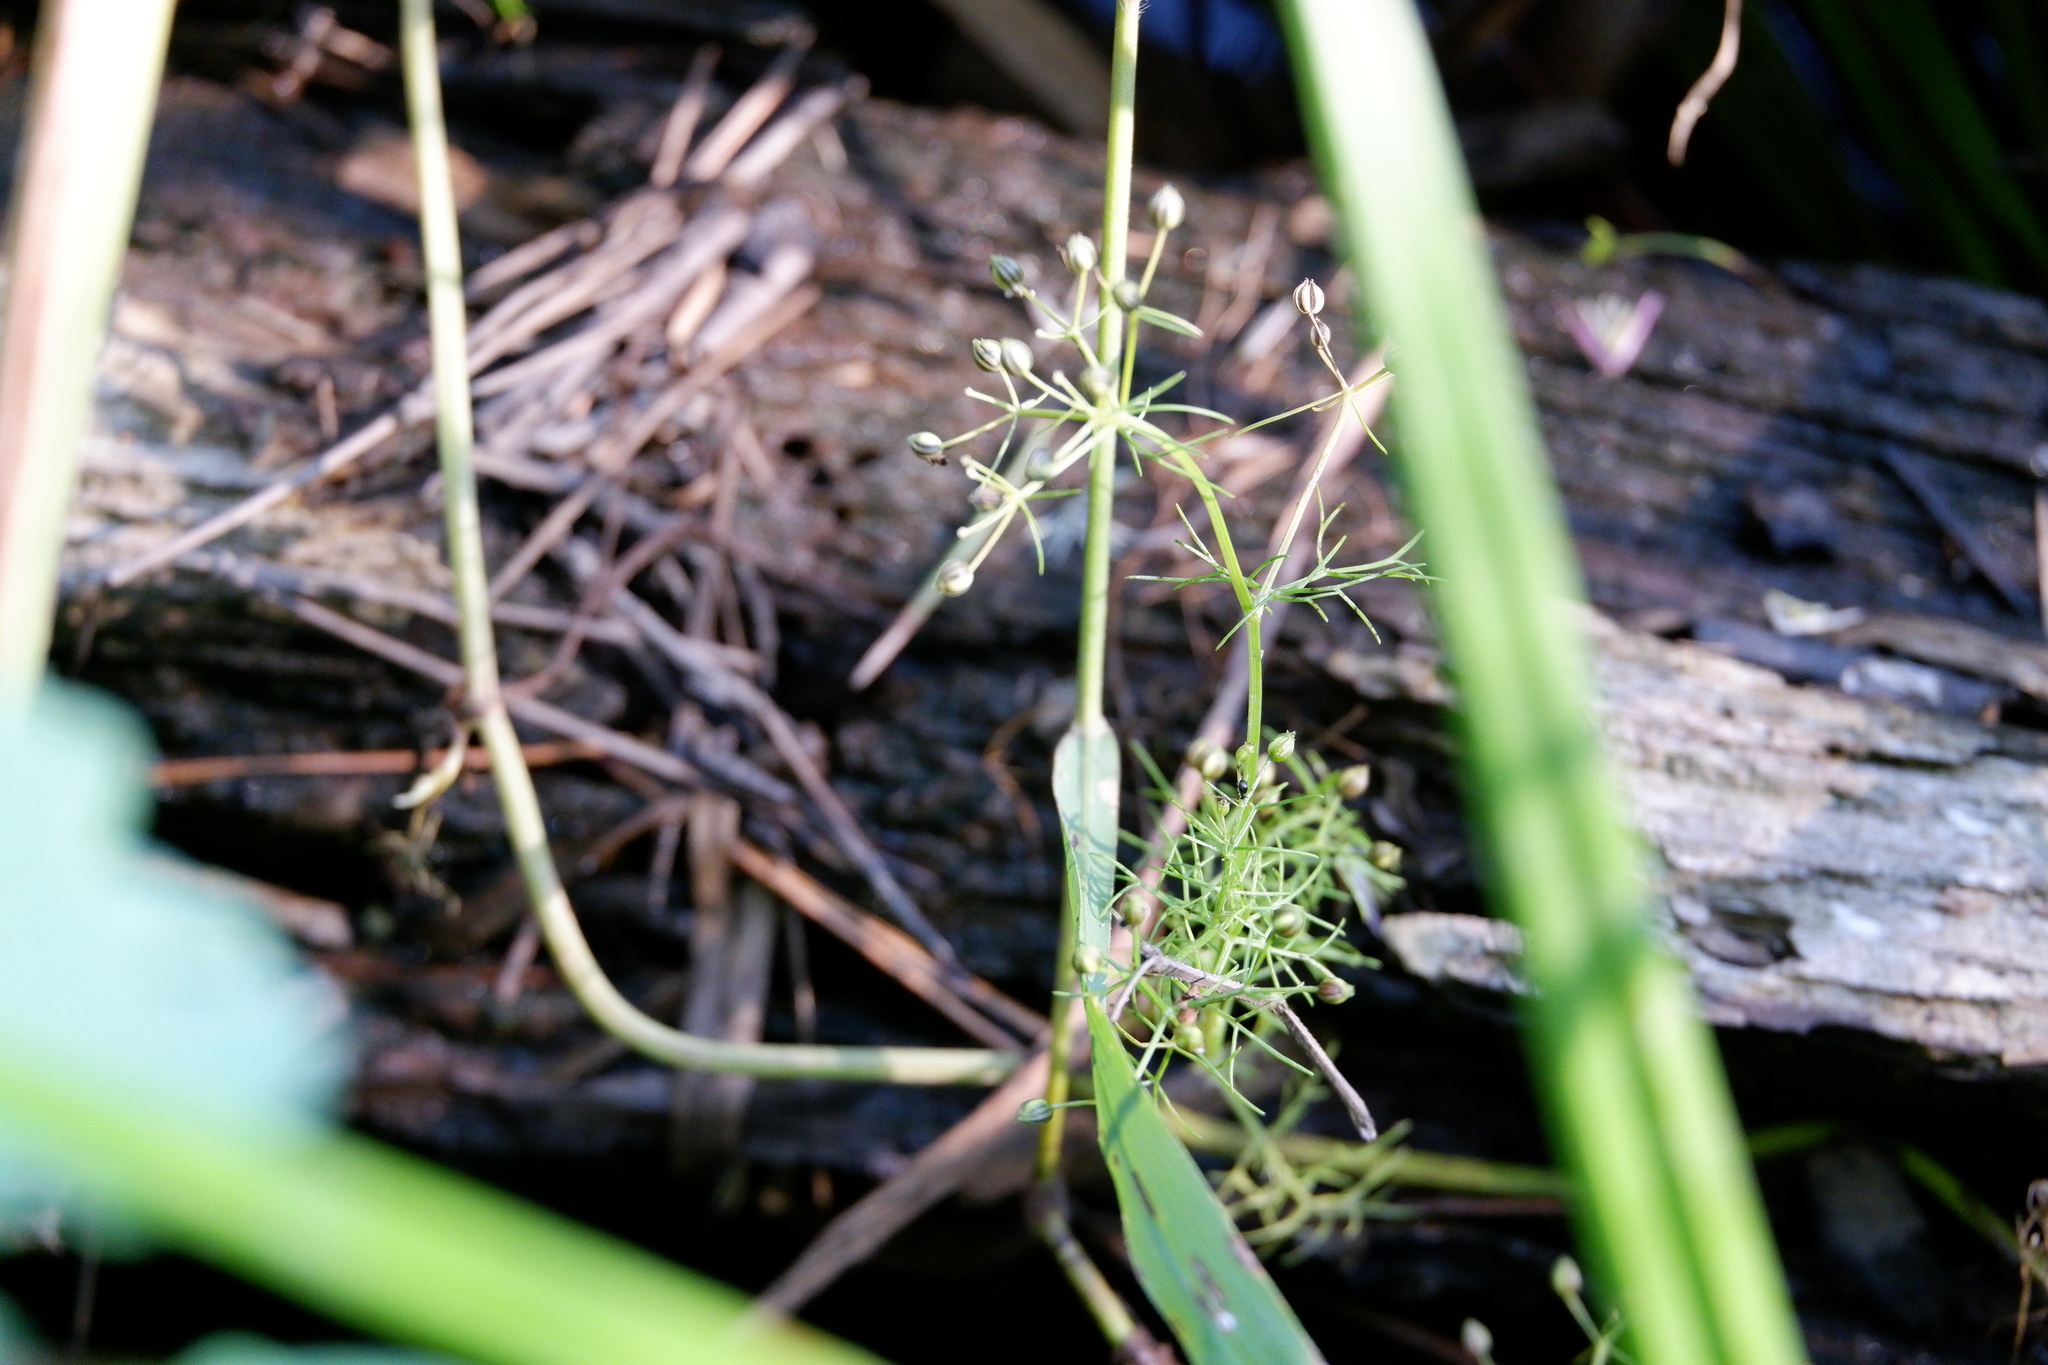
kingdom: Plantae
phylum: Tracheophyta
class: Magnoliopsida
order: Apiales
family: Apiaceae
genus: Ptilimnium
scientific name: Ptilimnium capillaceum
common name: Herbwilliam
